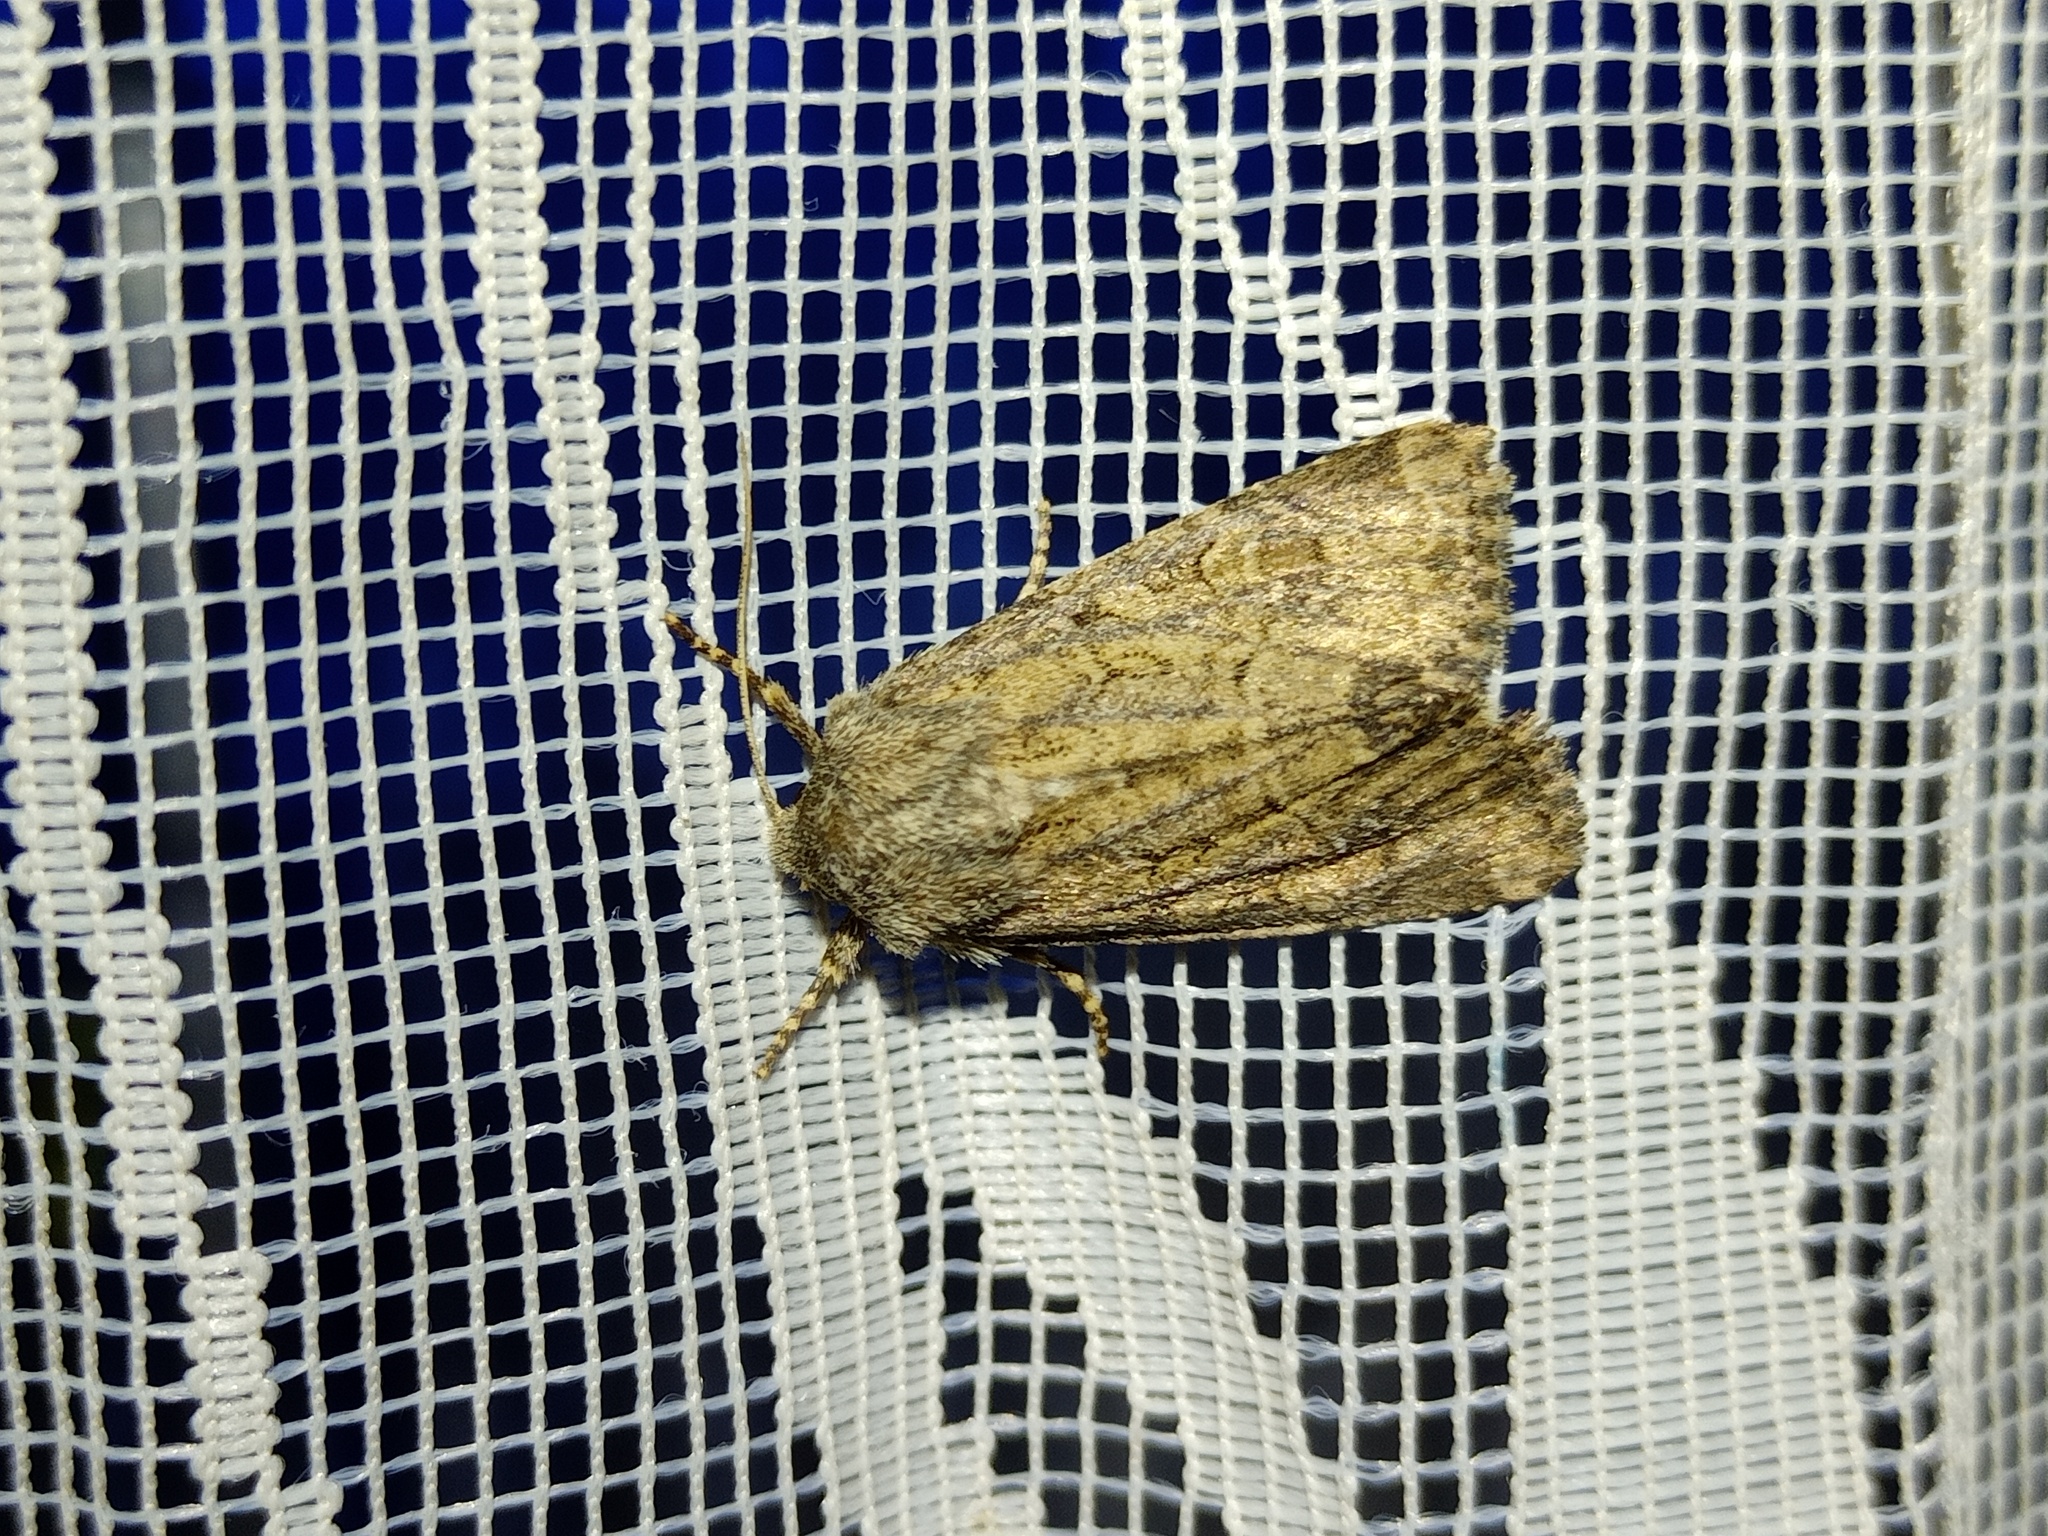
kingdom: Animalia
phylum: Arthropoda
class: Insecta
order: Lepidoptera
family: Noctuidae
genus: Luperina
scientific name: Luperina testacea
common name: Flounced rustic
